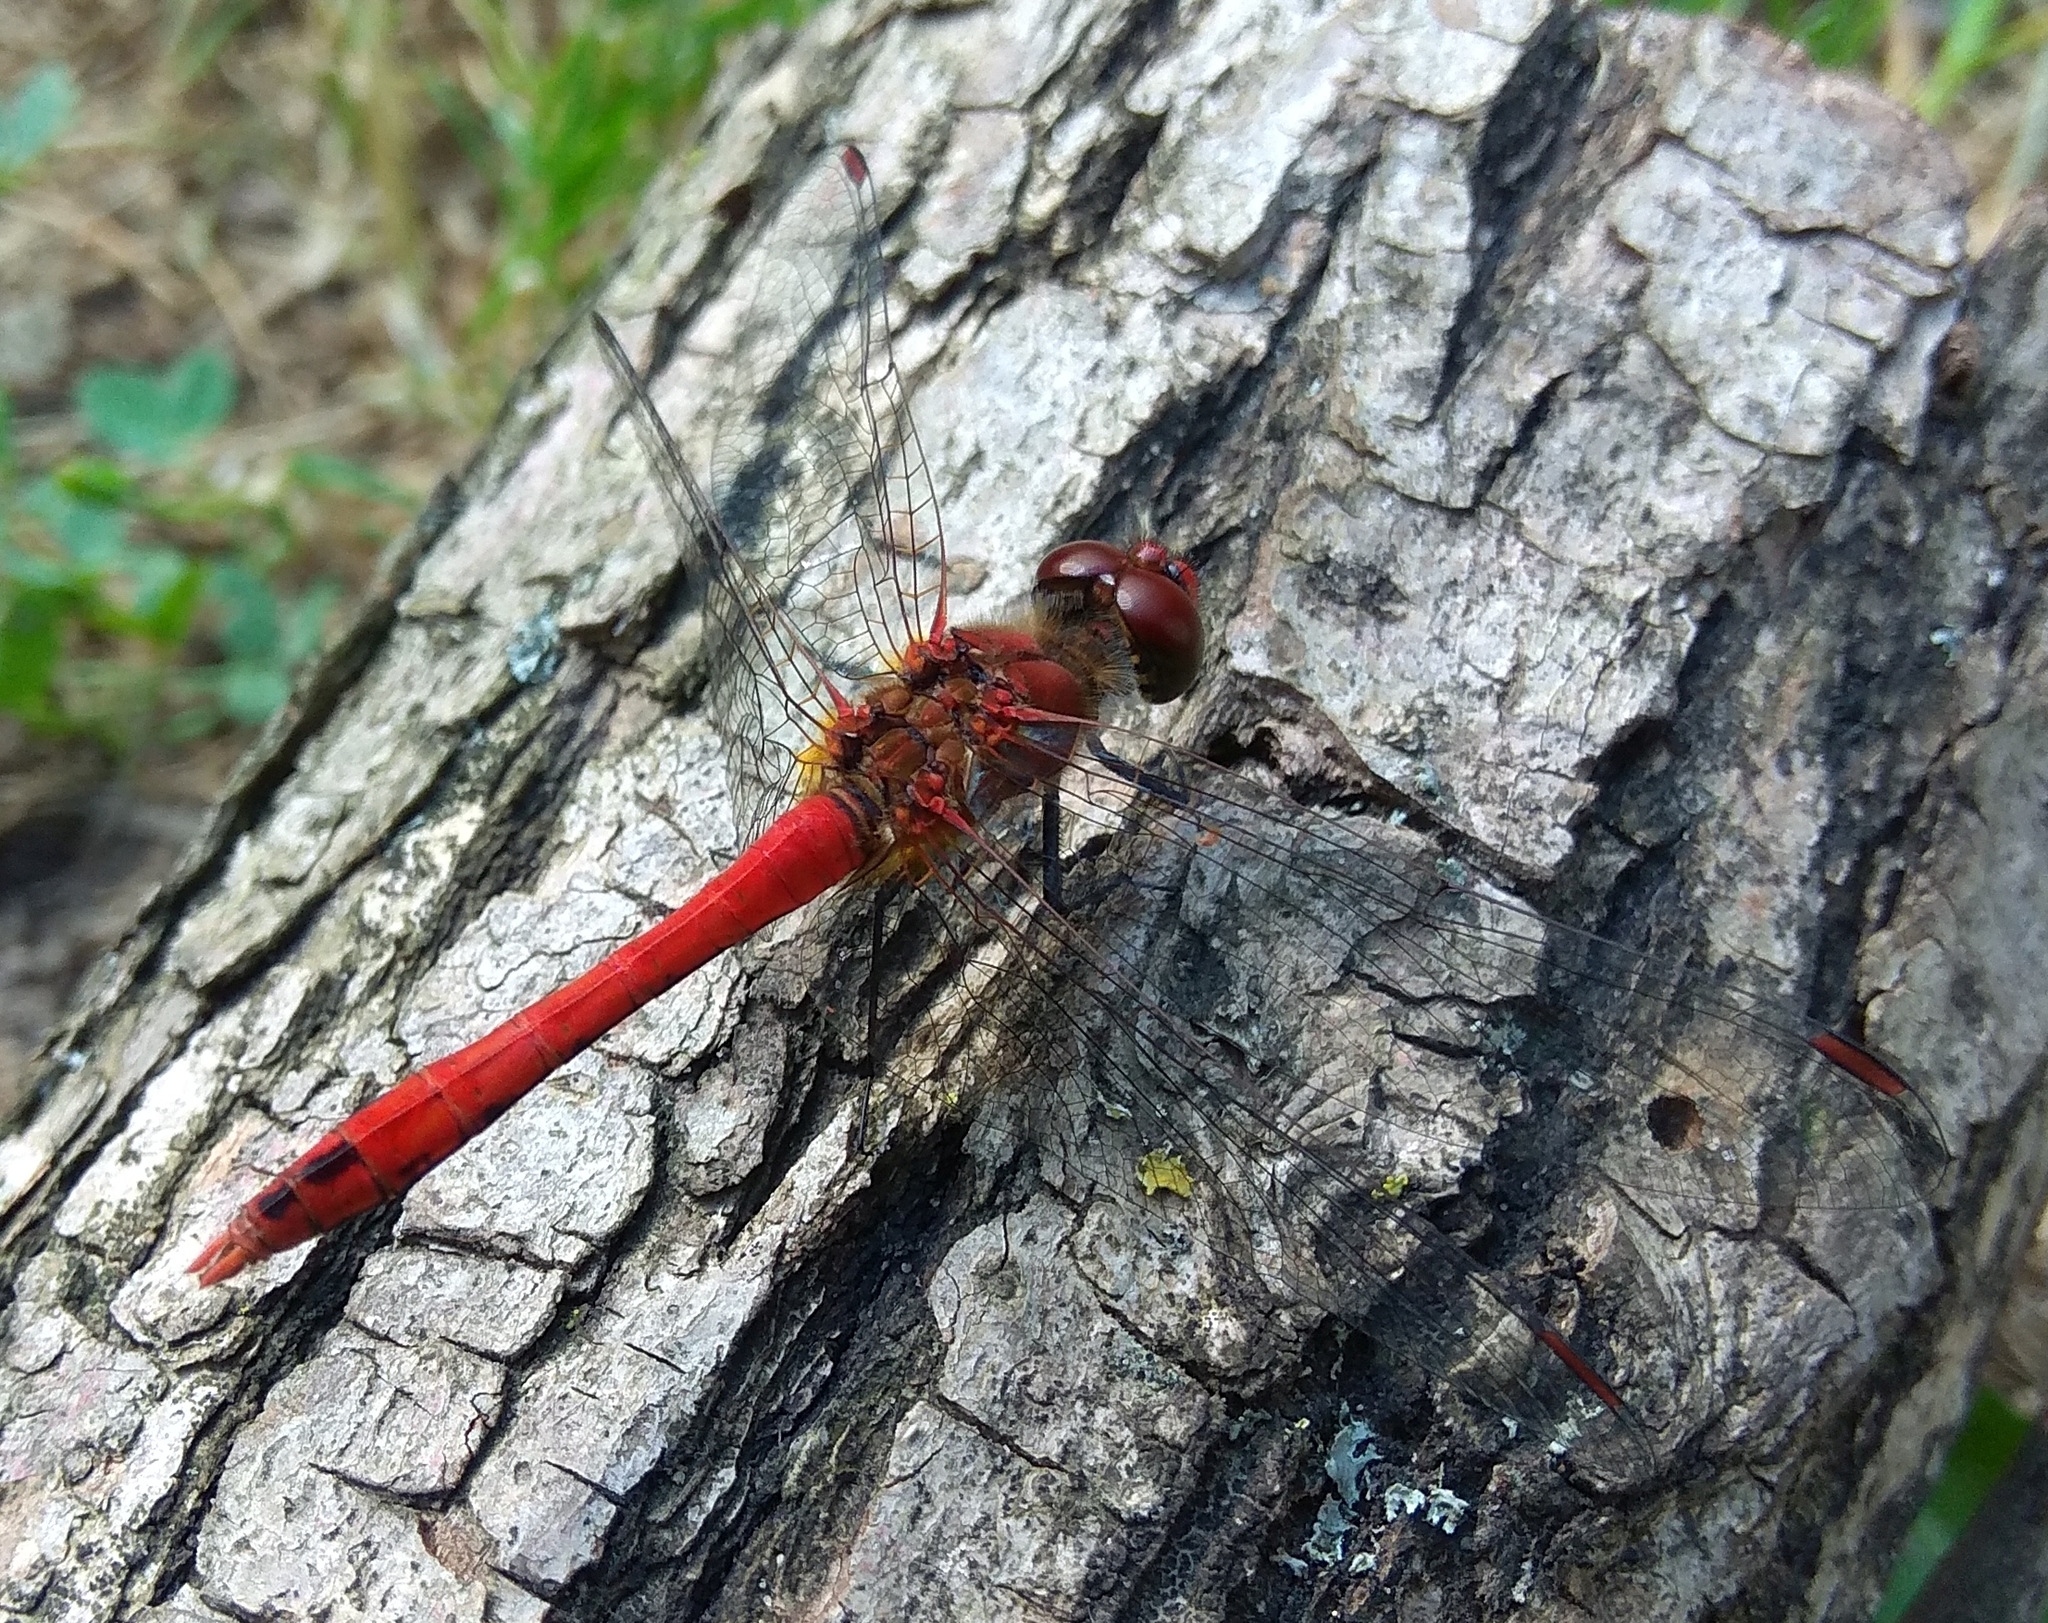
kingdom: Animalia
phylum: Arthropoda
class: Insecta
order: Odonata
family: Libellulidae
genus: Sympetrum
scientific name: Sympetrum sanguineum
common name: Ruddy darter
